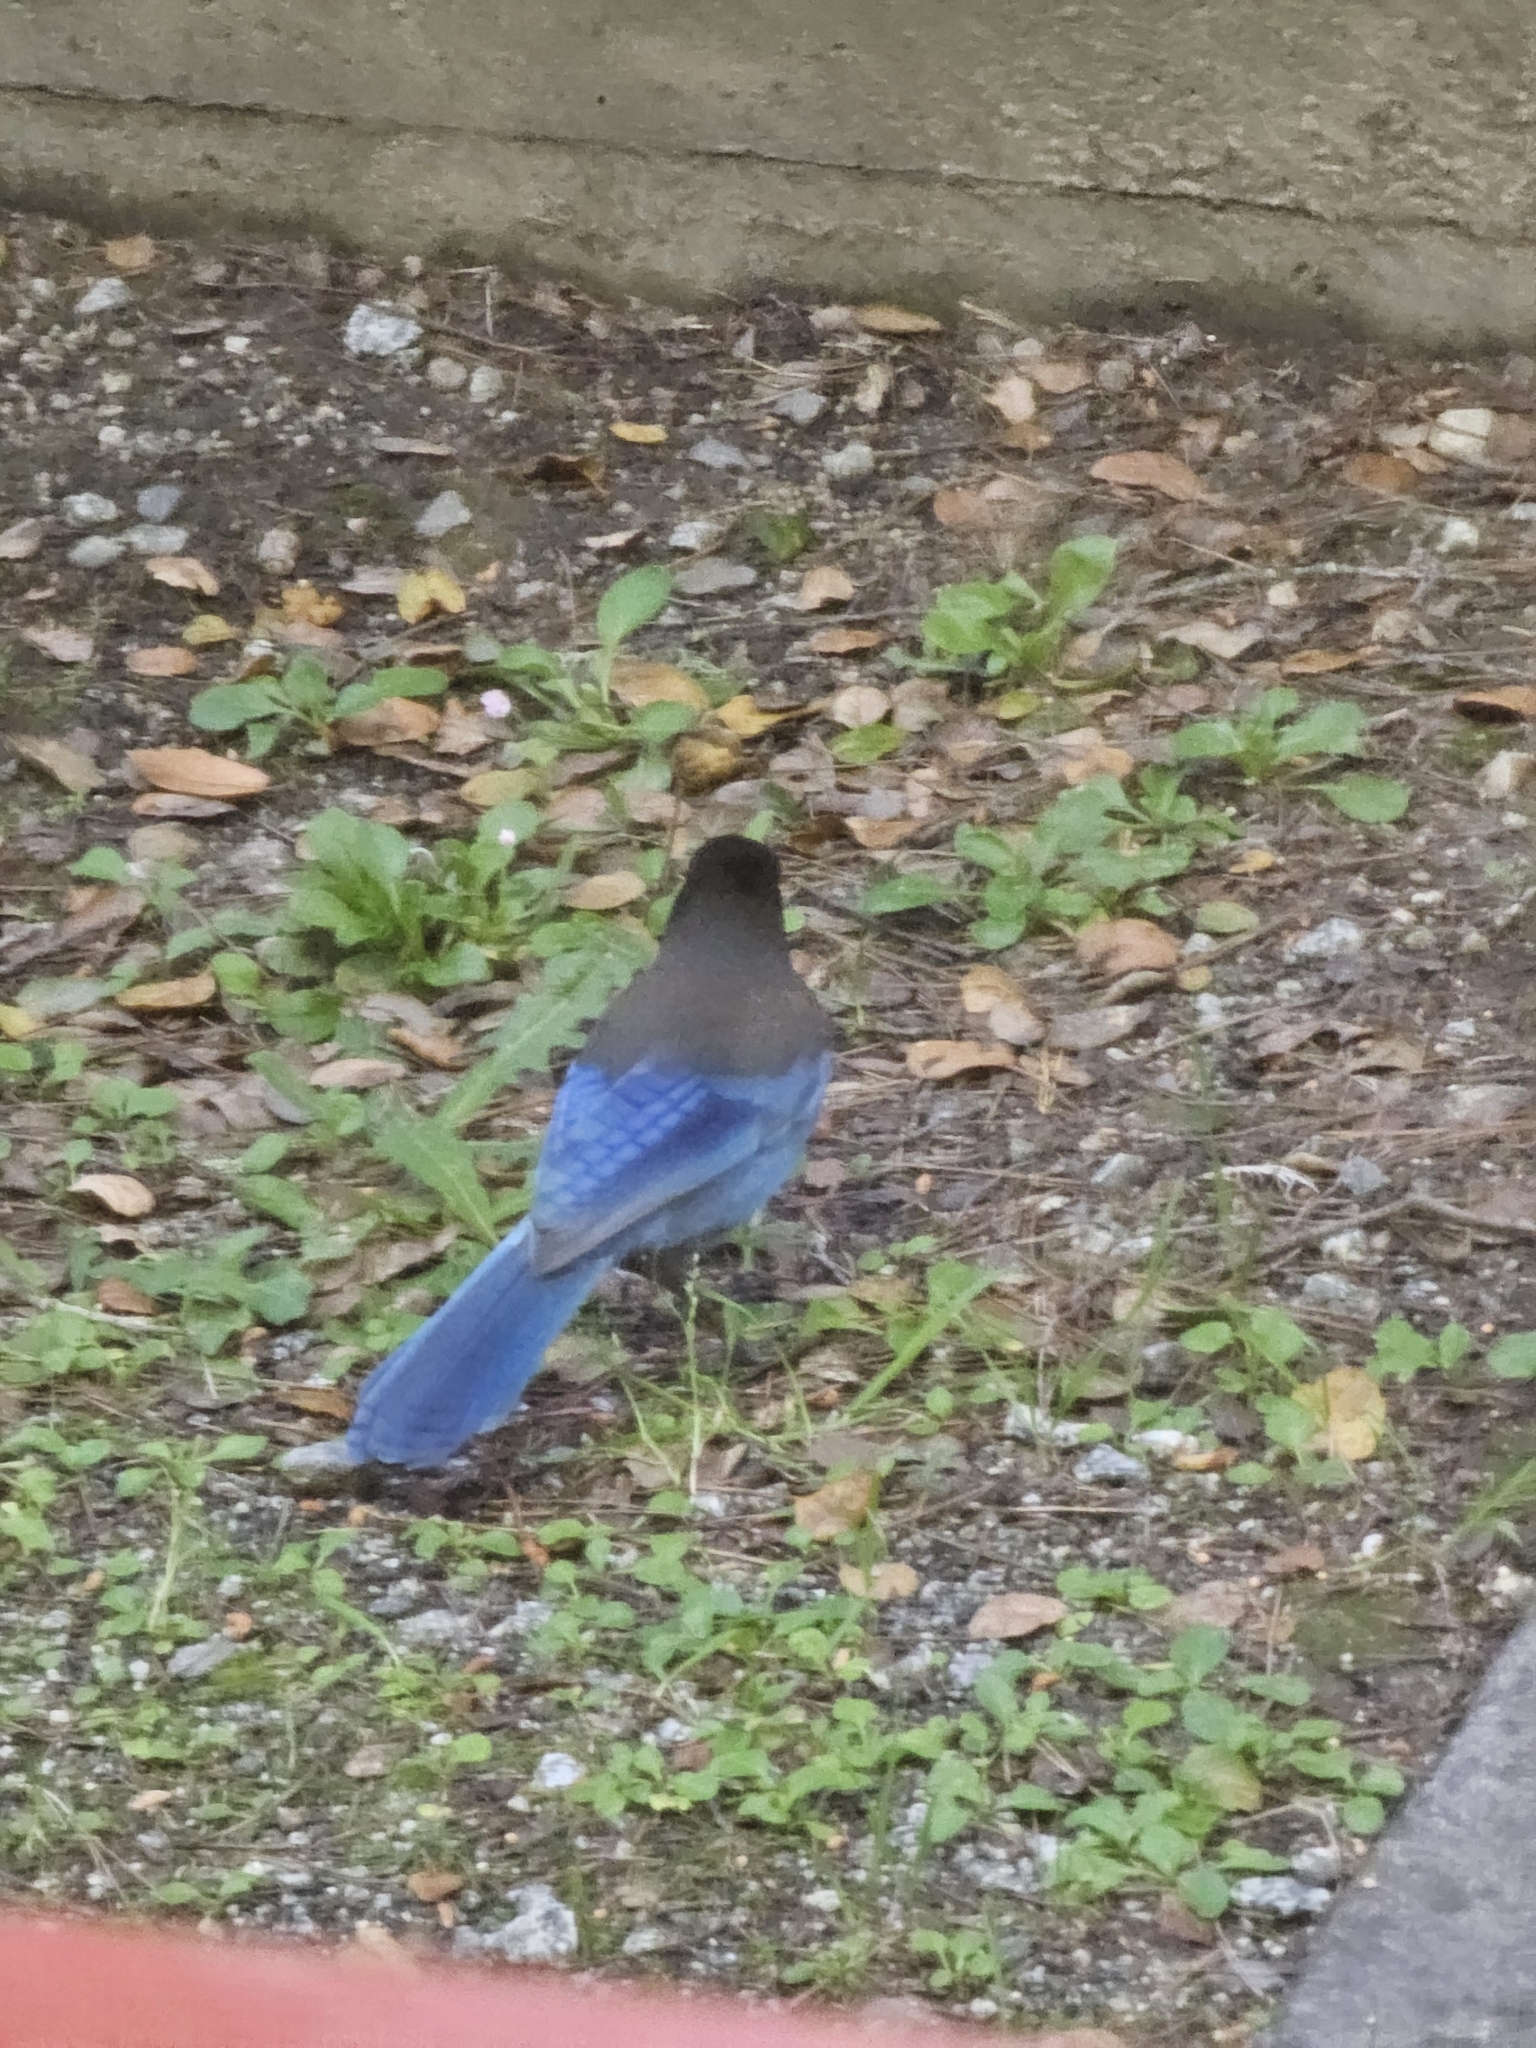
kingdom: Animalia
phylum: Chordata
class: Aves
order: Passeriformes
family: Corvidae
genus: Cyanocitta
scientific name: Cyanocitta stelleri
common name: Steller's jay
